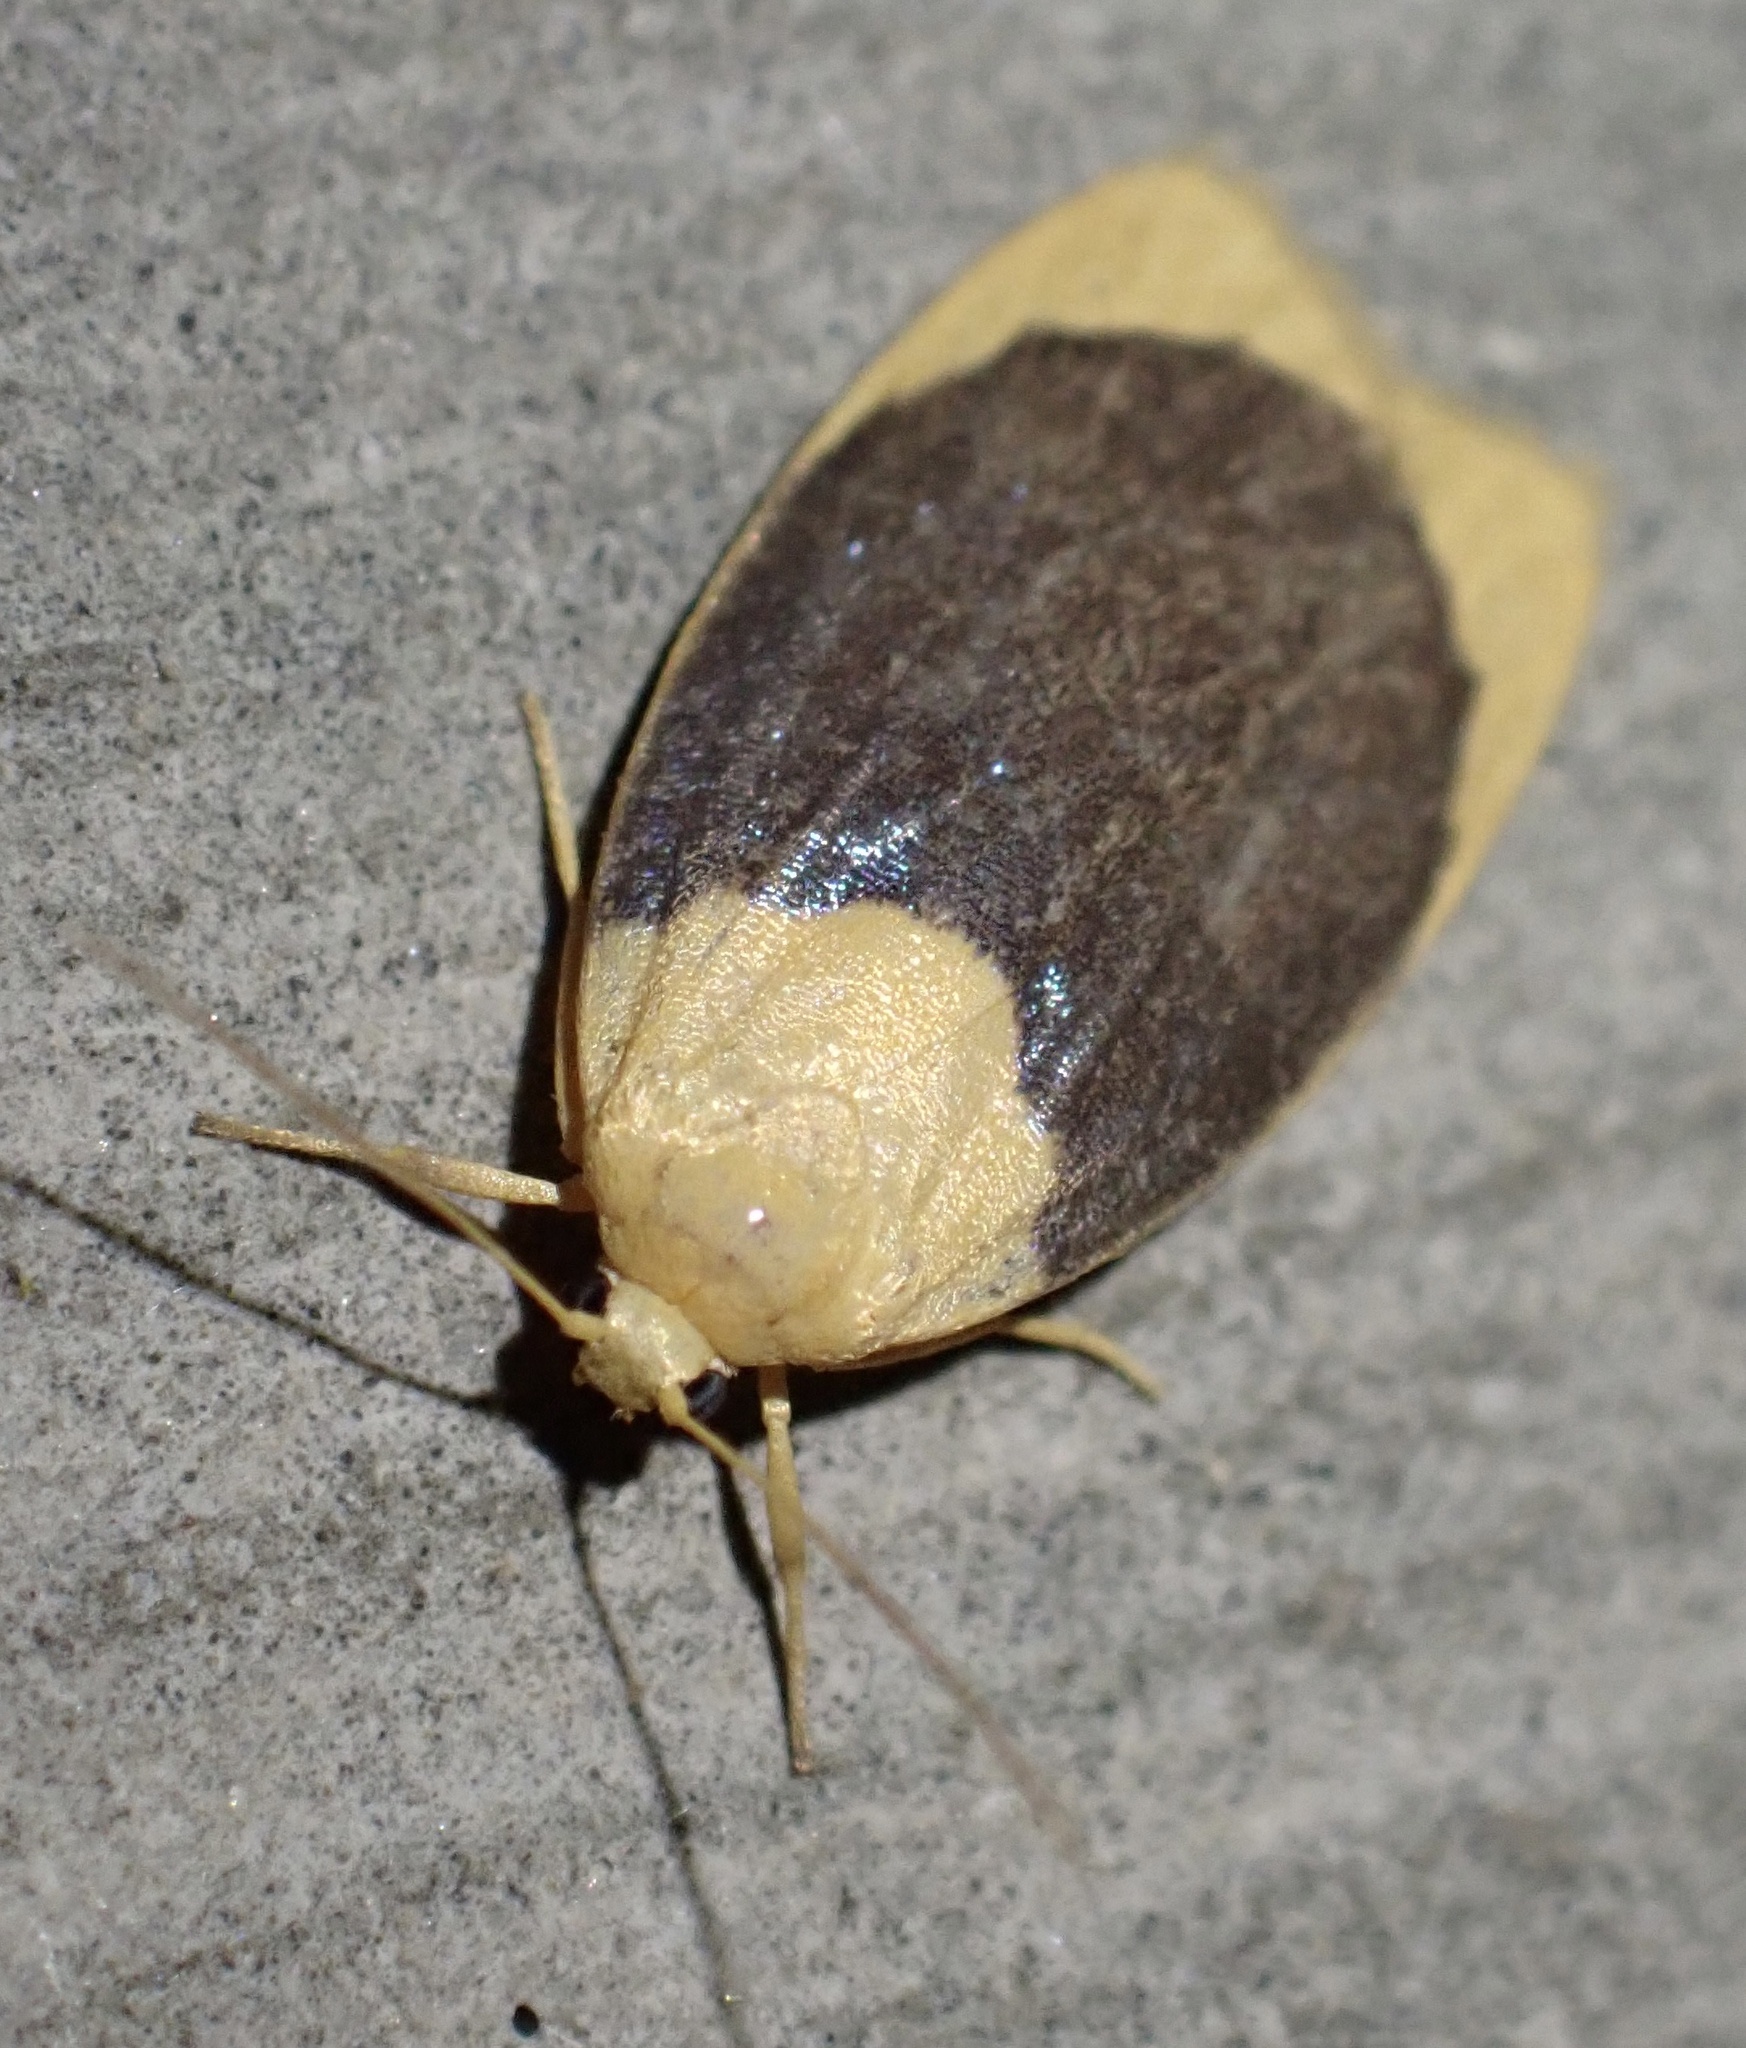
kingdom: Animalia
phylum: Arthropoda
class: Insecta
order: Lepidoptera
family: Erebidae
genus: Darantasia
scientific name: Darantasia cyanifera
